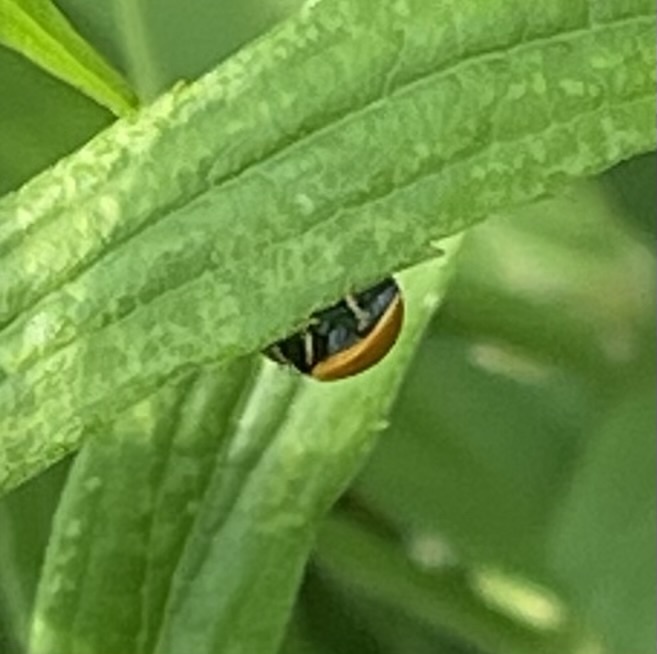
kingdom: Animalia
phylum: Arthropoda
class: Insecta
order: Coleoptera
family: Coccinellidae
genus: Cycloneda
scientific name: Cycloneda munda
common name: Polished lady beetle
